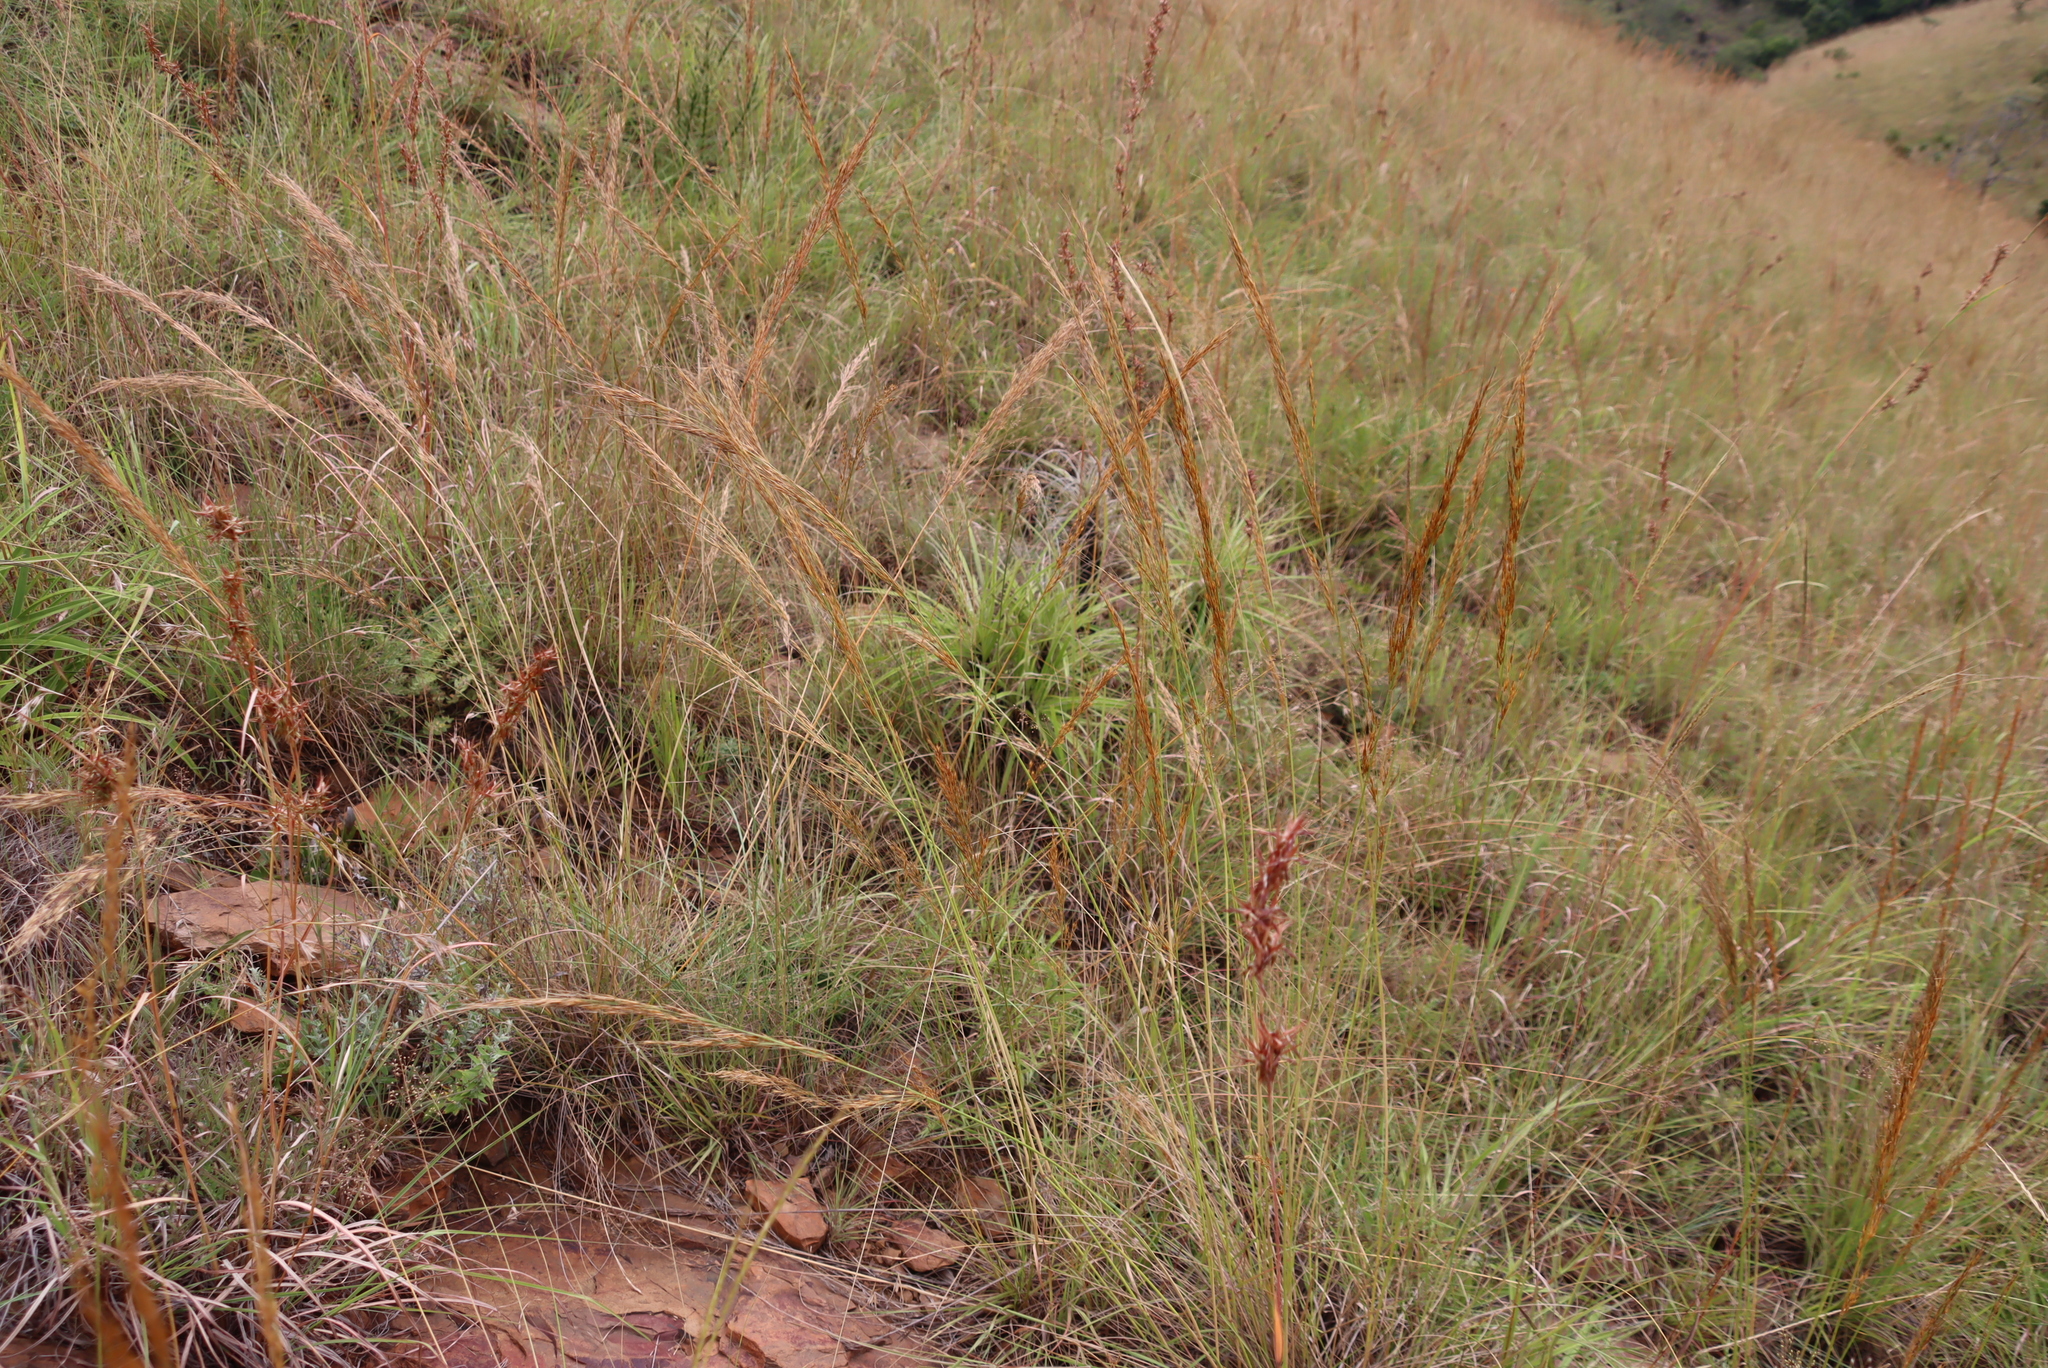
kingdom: Plantae
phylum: Tracheophyta
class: Liliopsida
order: Pandanales
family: Velloziaceae
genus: Xerophyta
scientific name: Xerophyta retinervis
